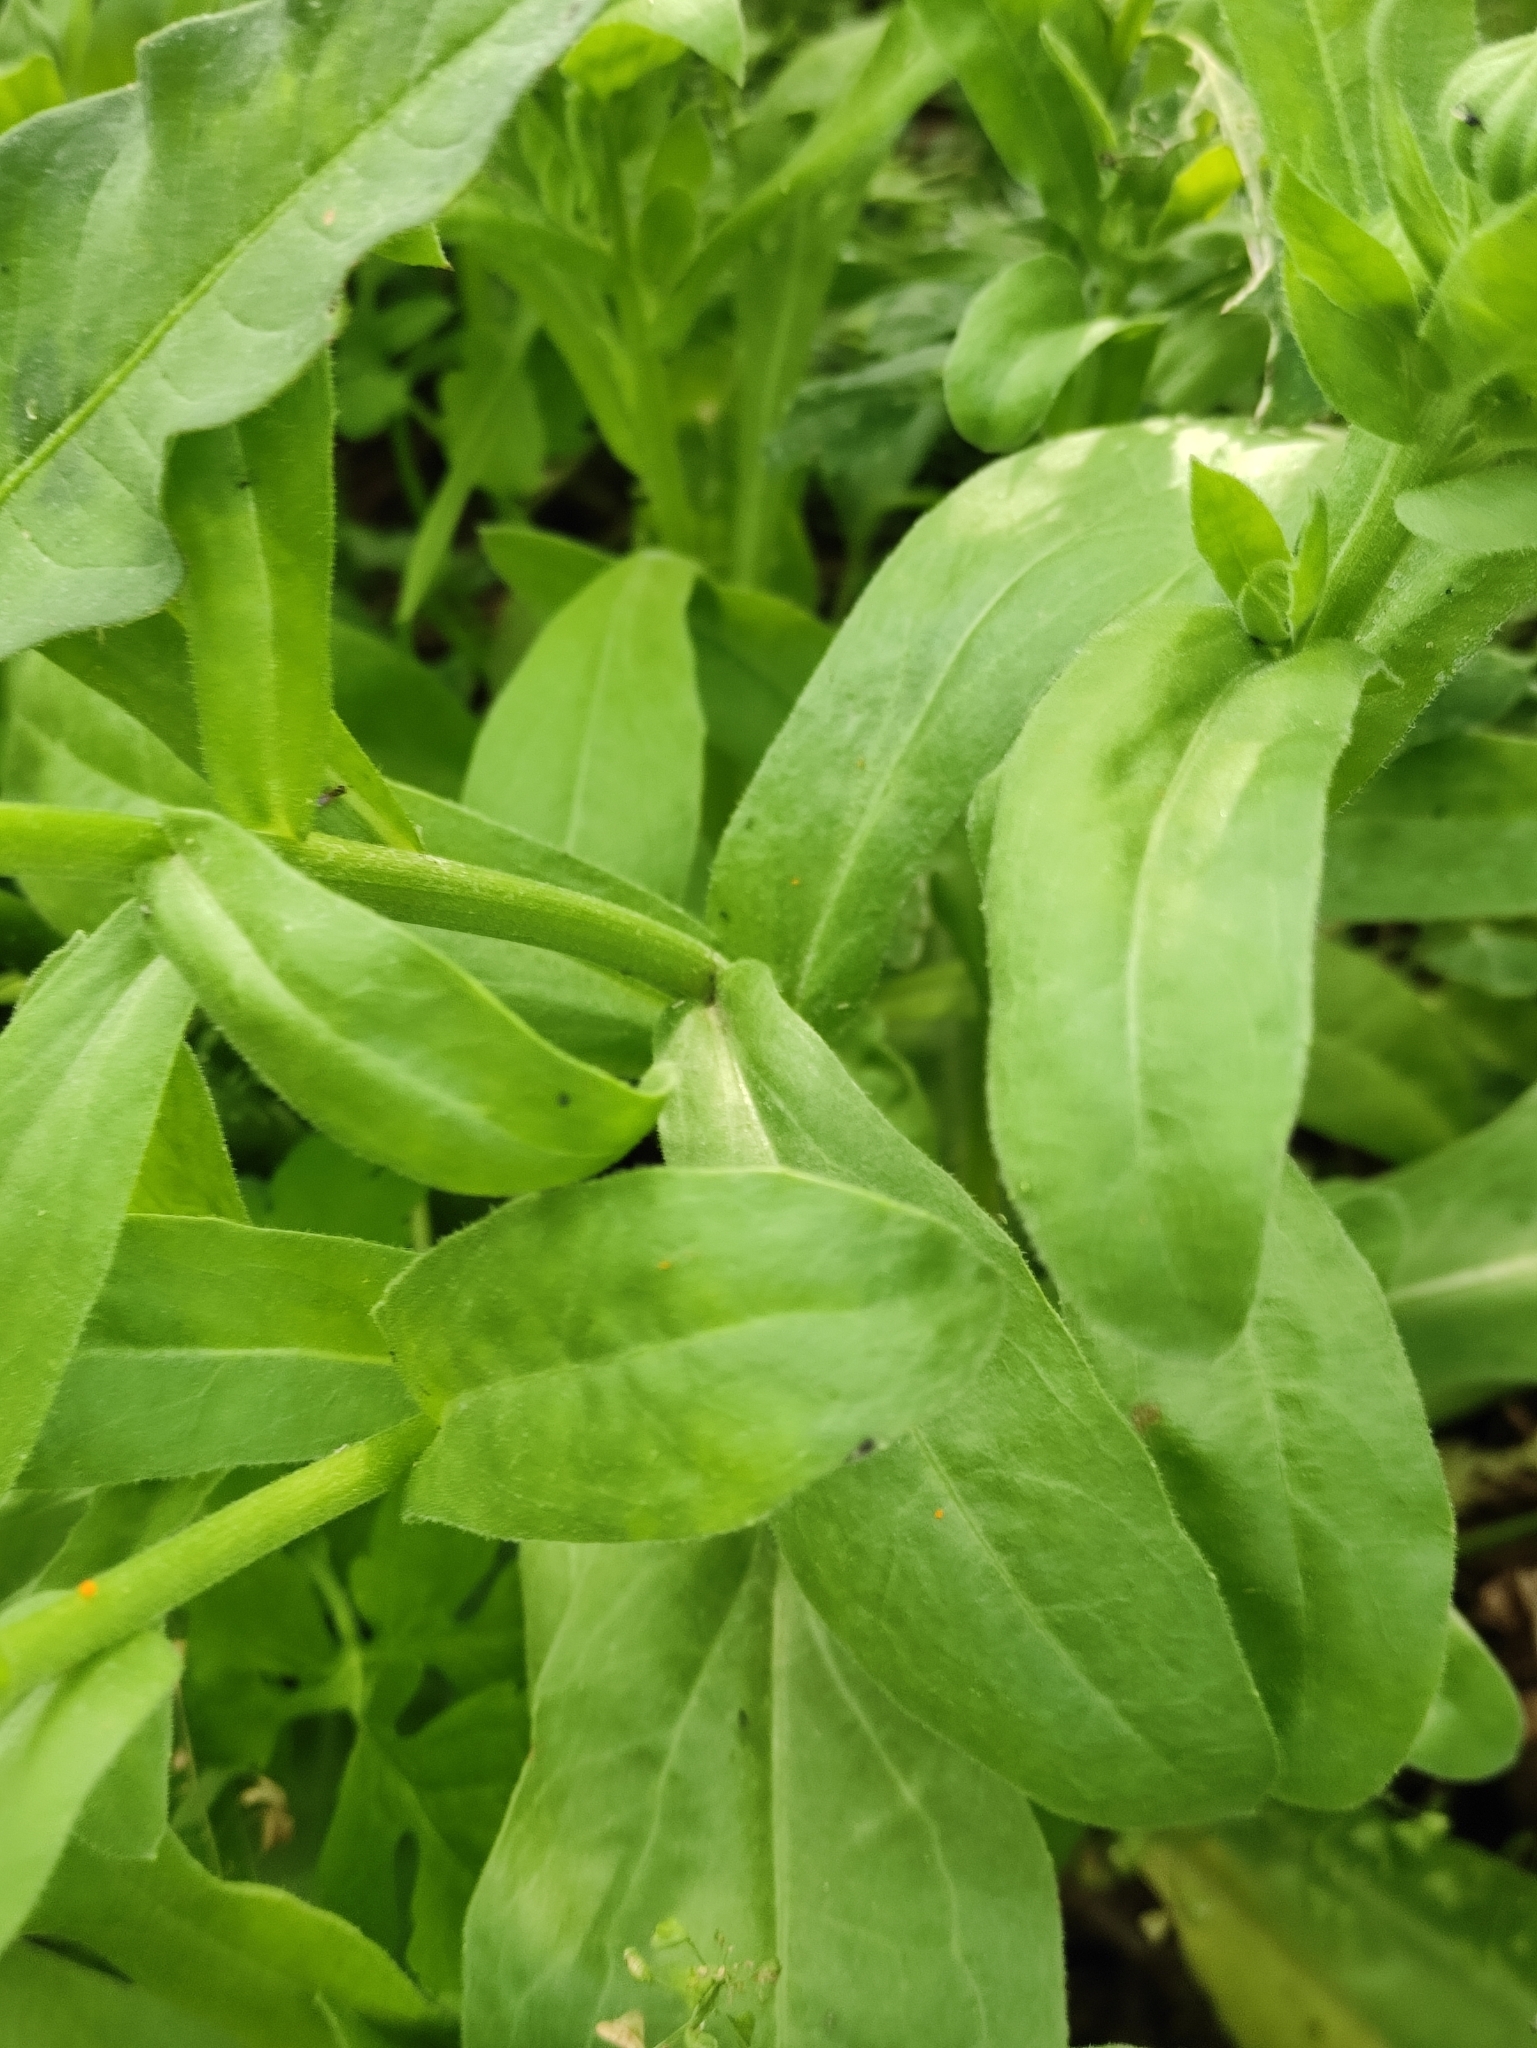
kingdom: Plantae
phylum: Tracheophyta
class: Magnoliopsida
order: Asterales
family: Asteraceae
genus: Calendula
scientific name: Calendula officinalis
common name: Pot marigold
